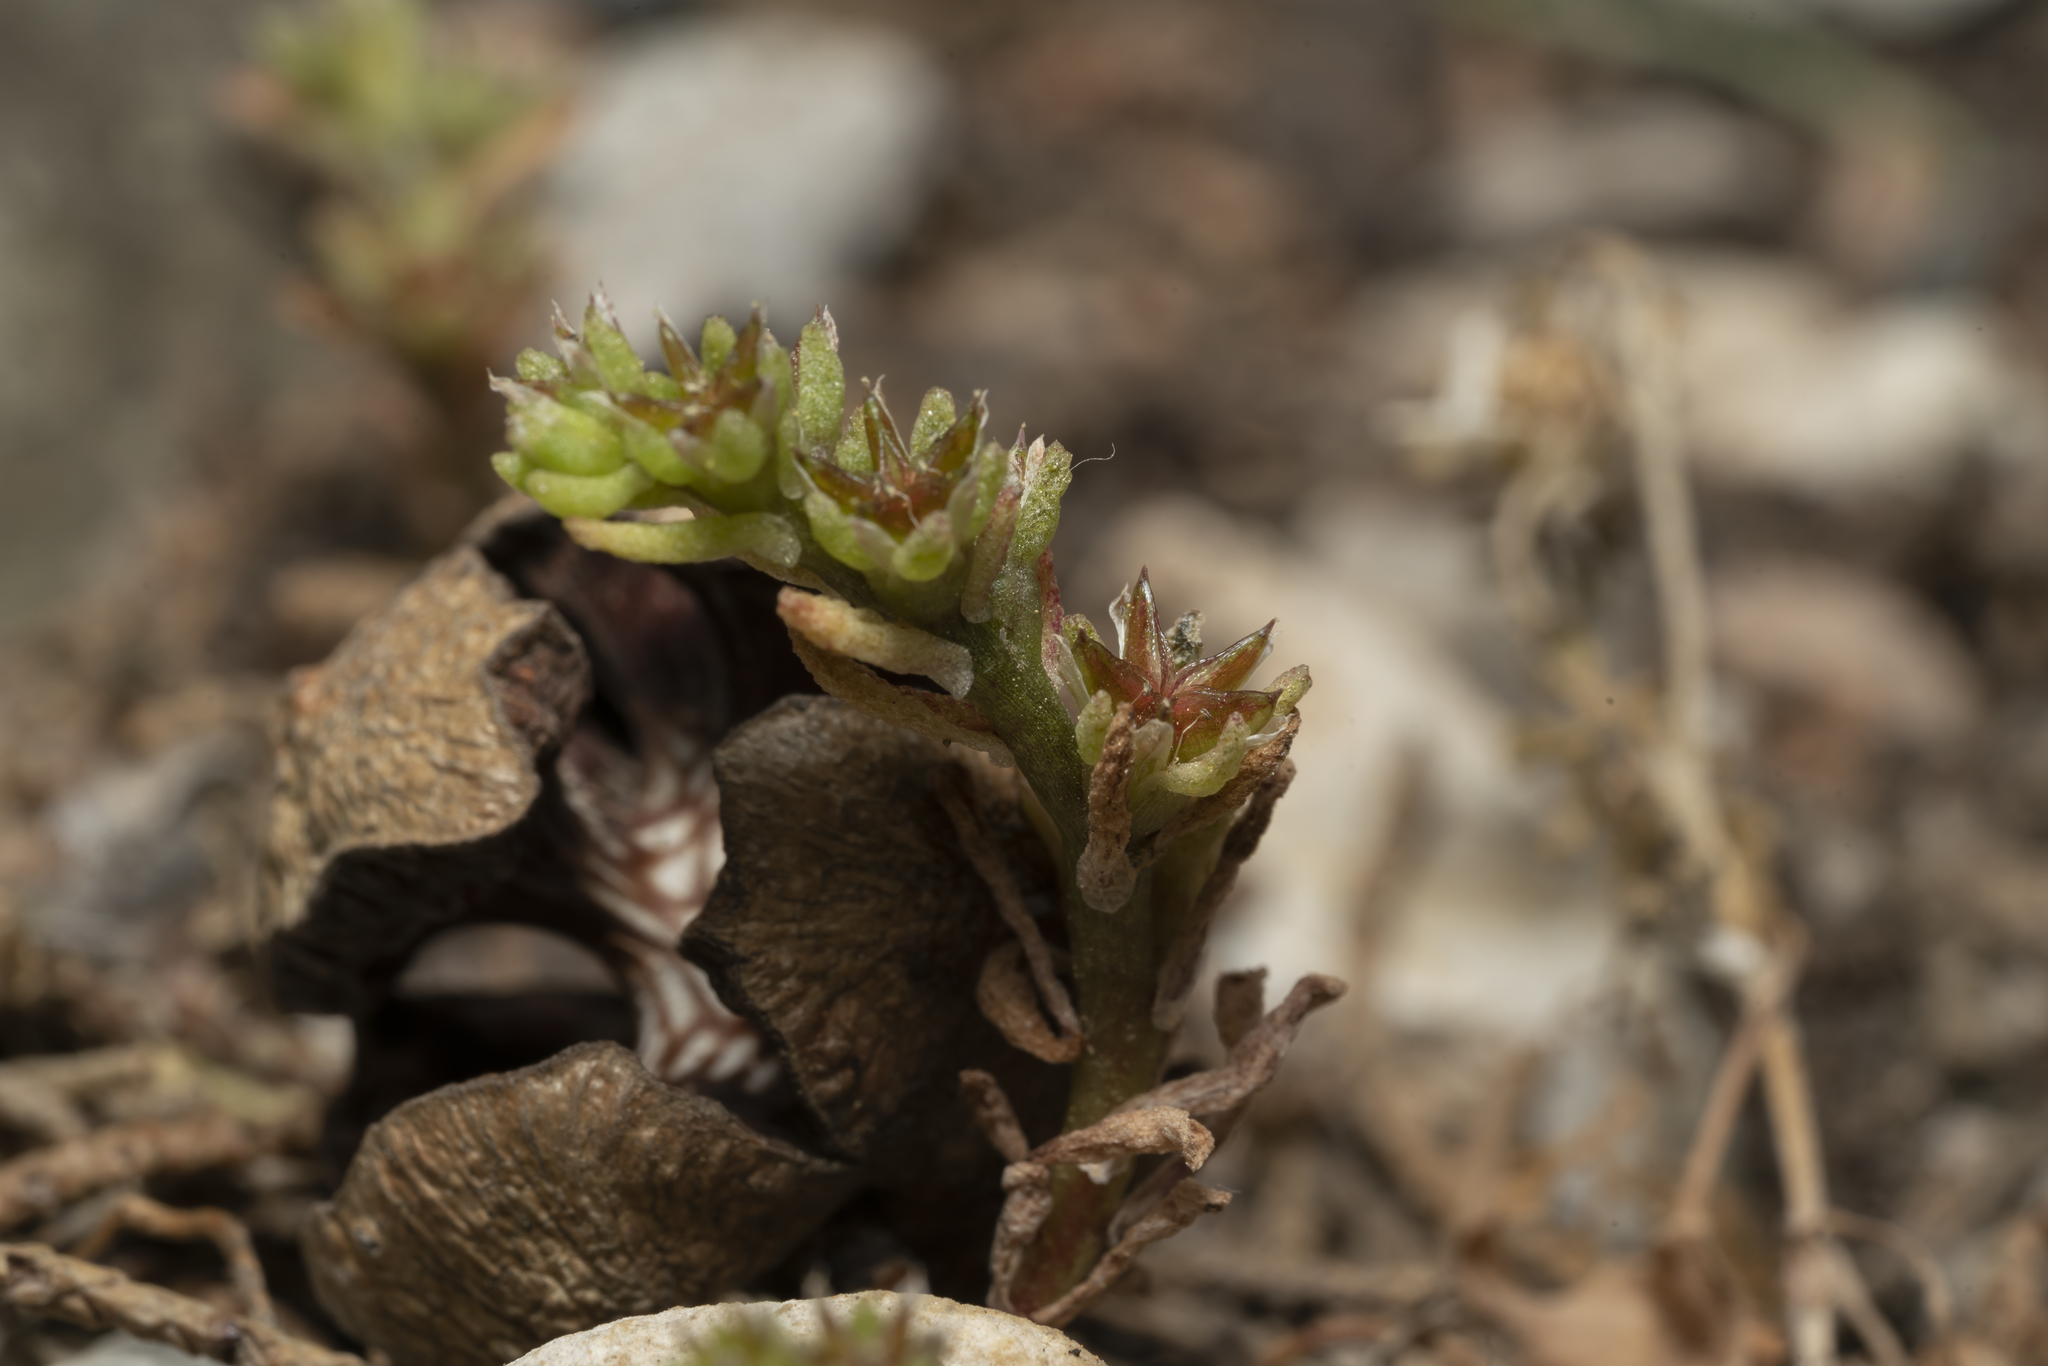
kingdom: Plantae
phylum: Tracheophyta
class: Magnoliopsida
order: Saxifragales
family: Crassulaceae
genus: Sedum
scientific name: Sedum litoreum
